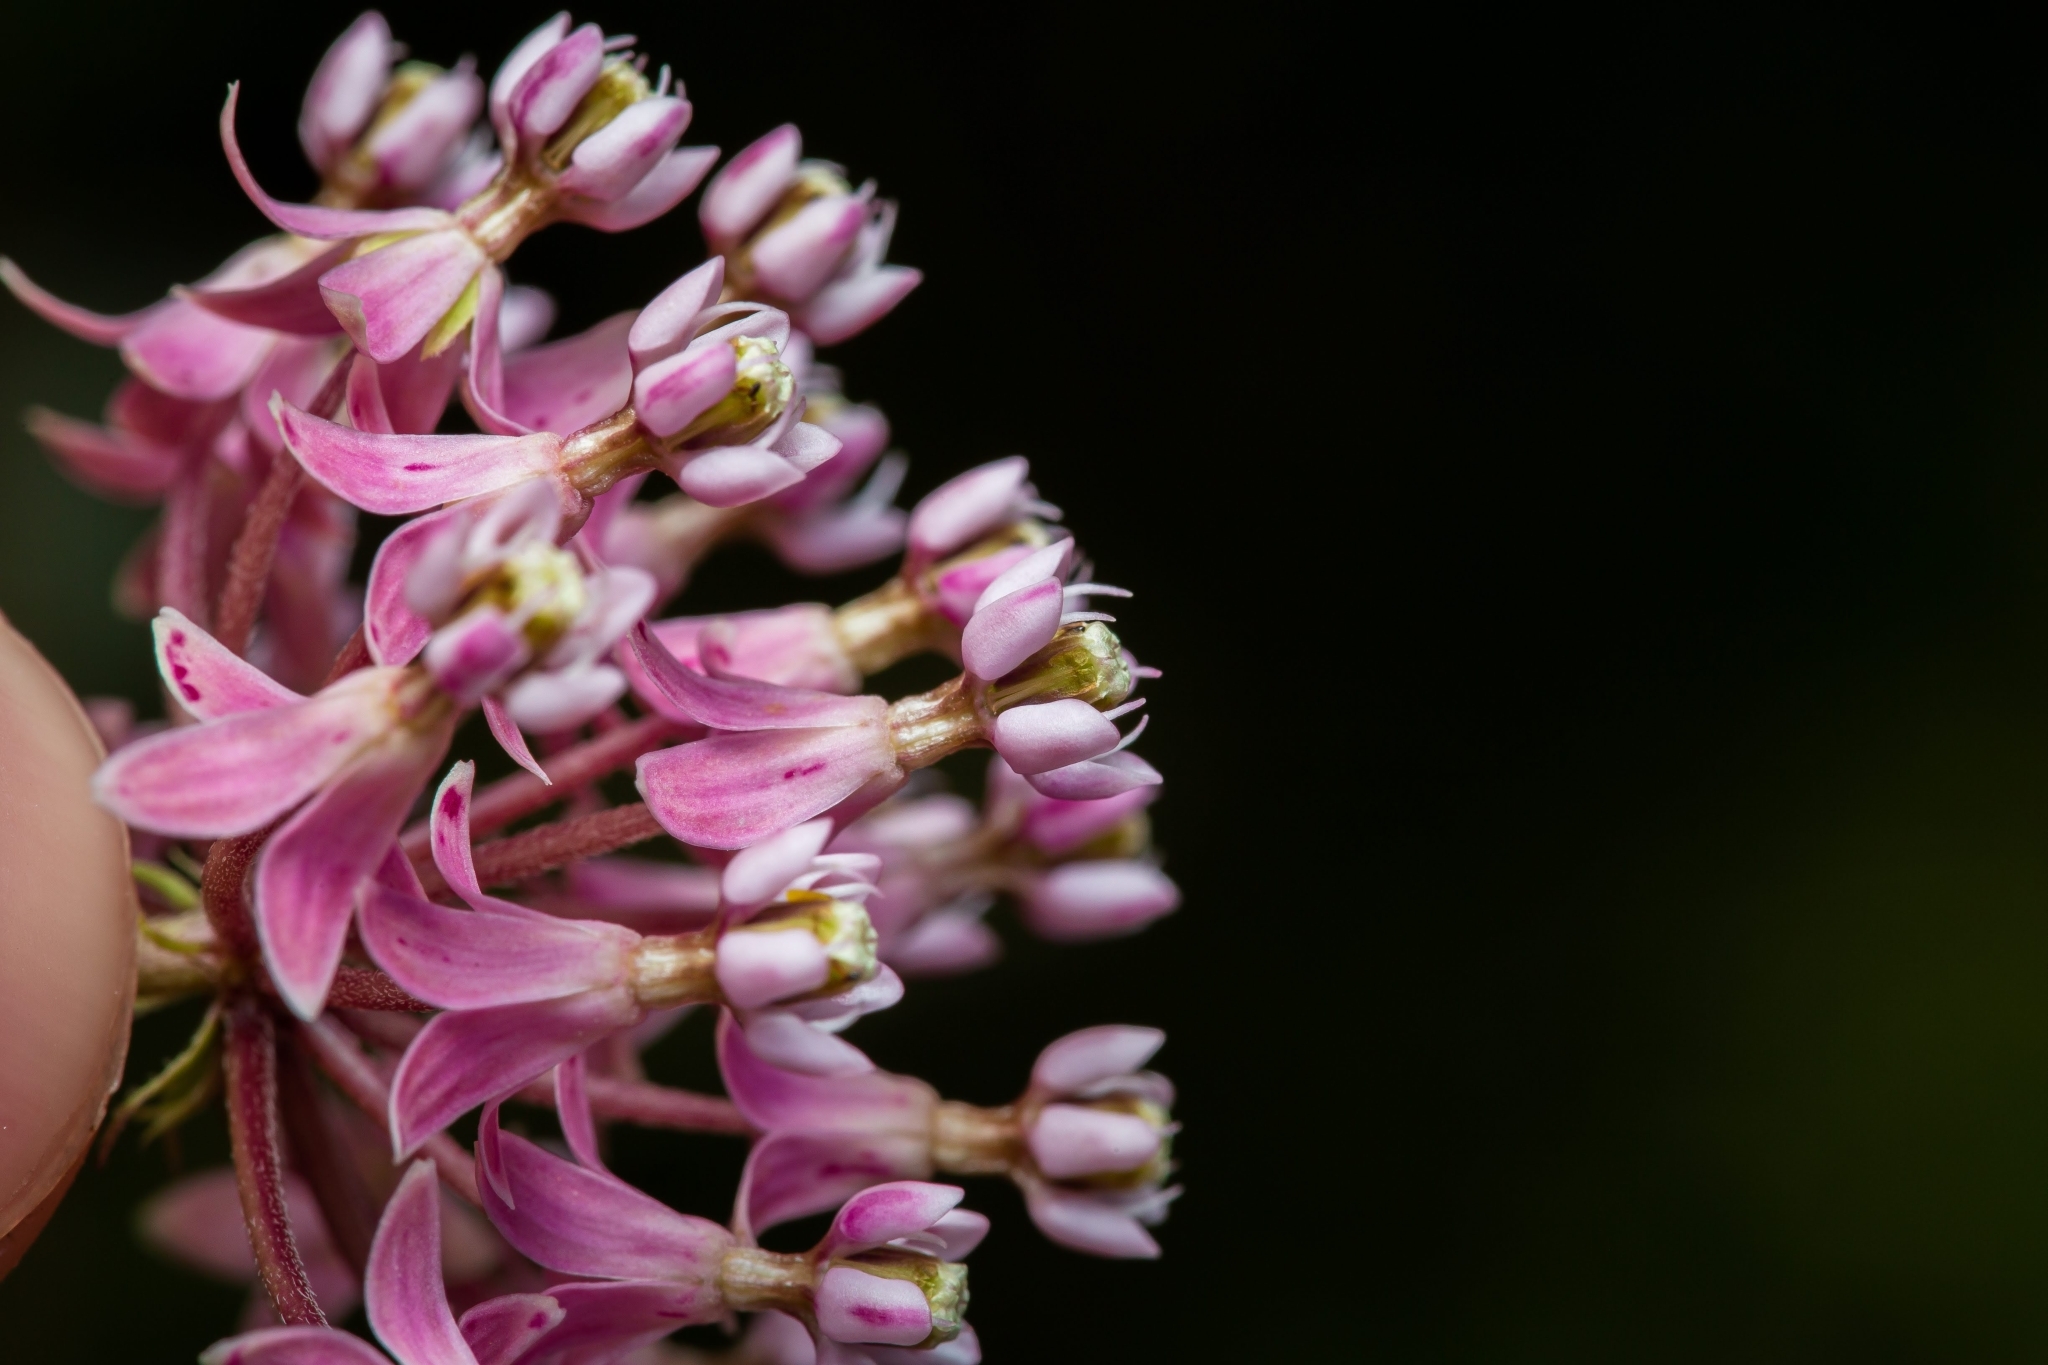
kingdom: Plantae
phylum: Tracheophyta
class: Magnoliopsida
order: Gentianales
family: Apocynaceae
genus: Asclepias
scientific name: Asclepias incarnata
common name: Swamp milkweed
